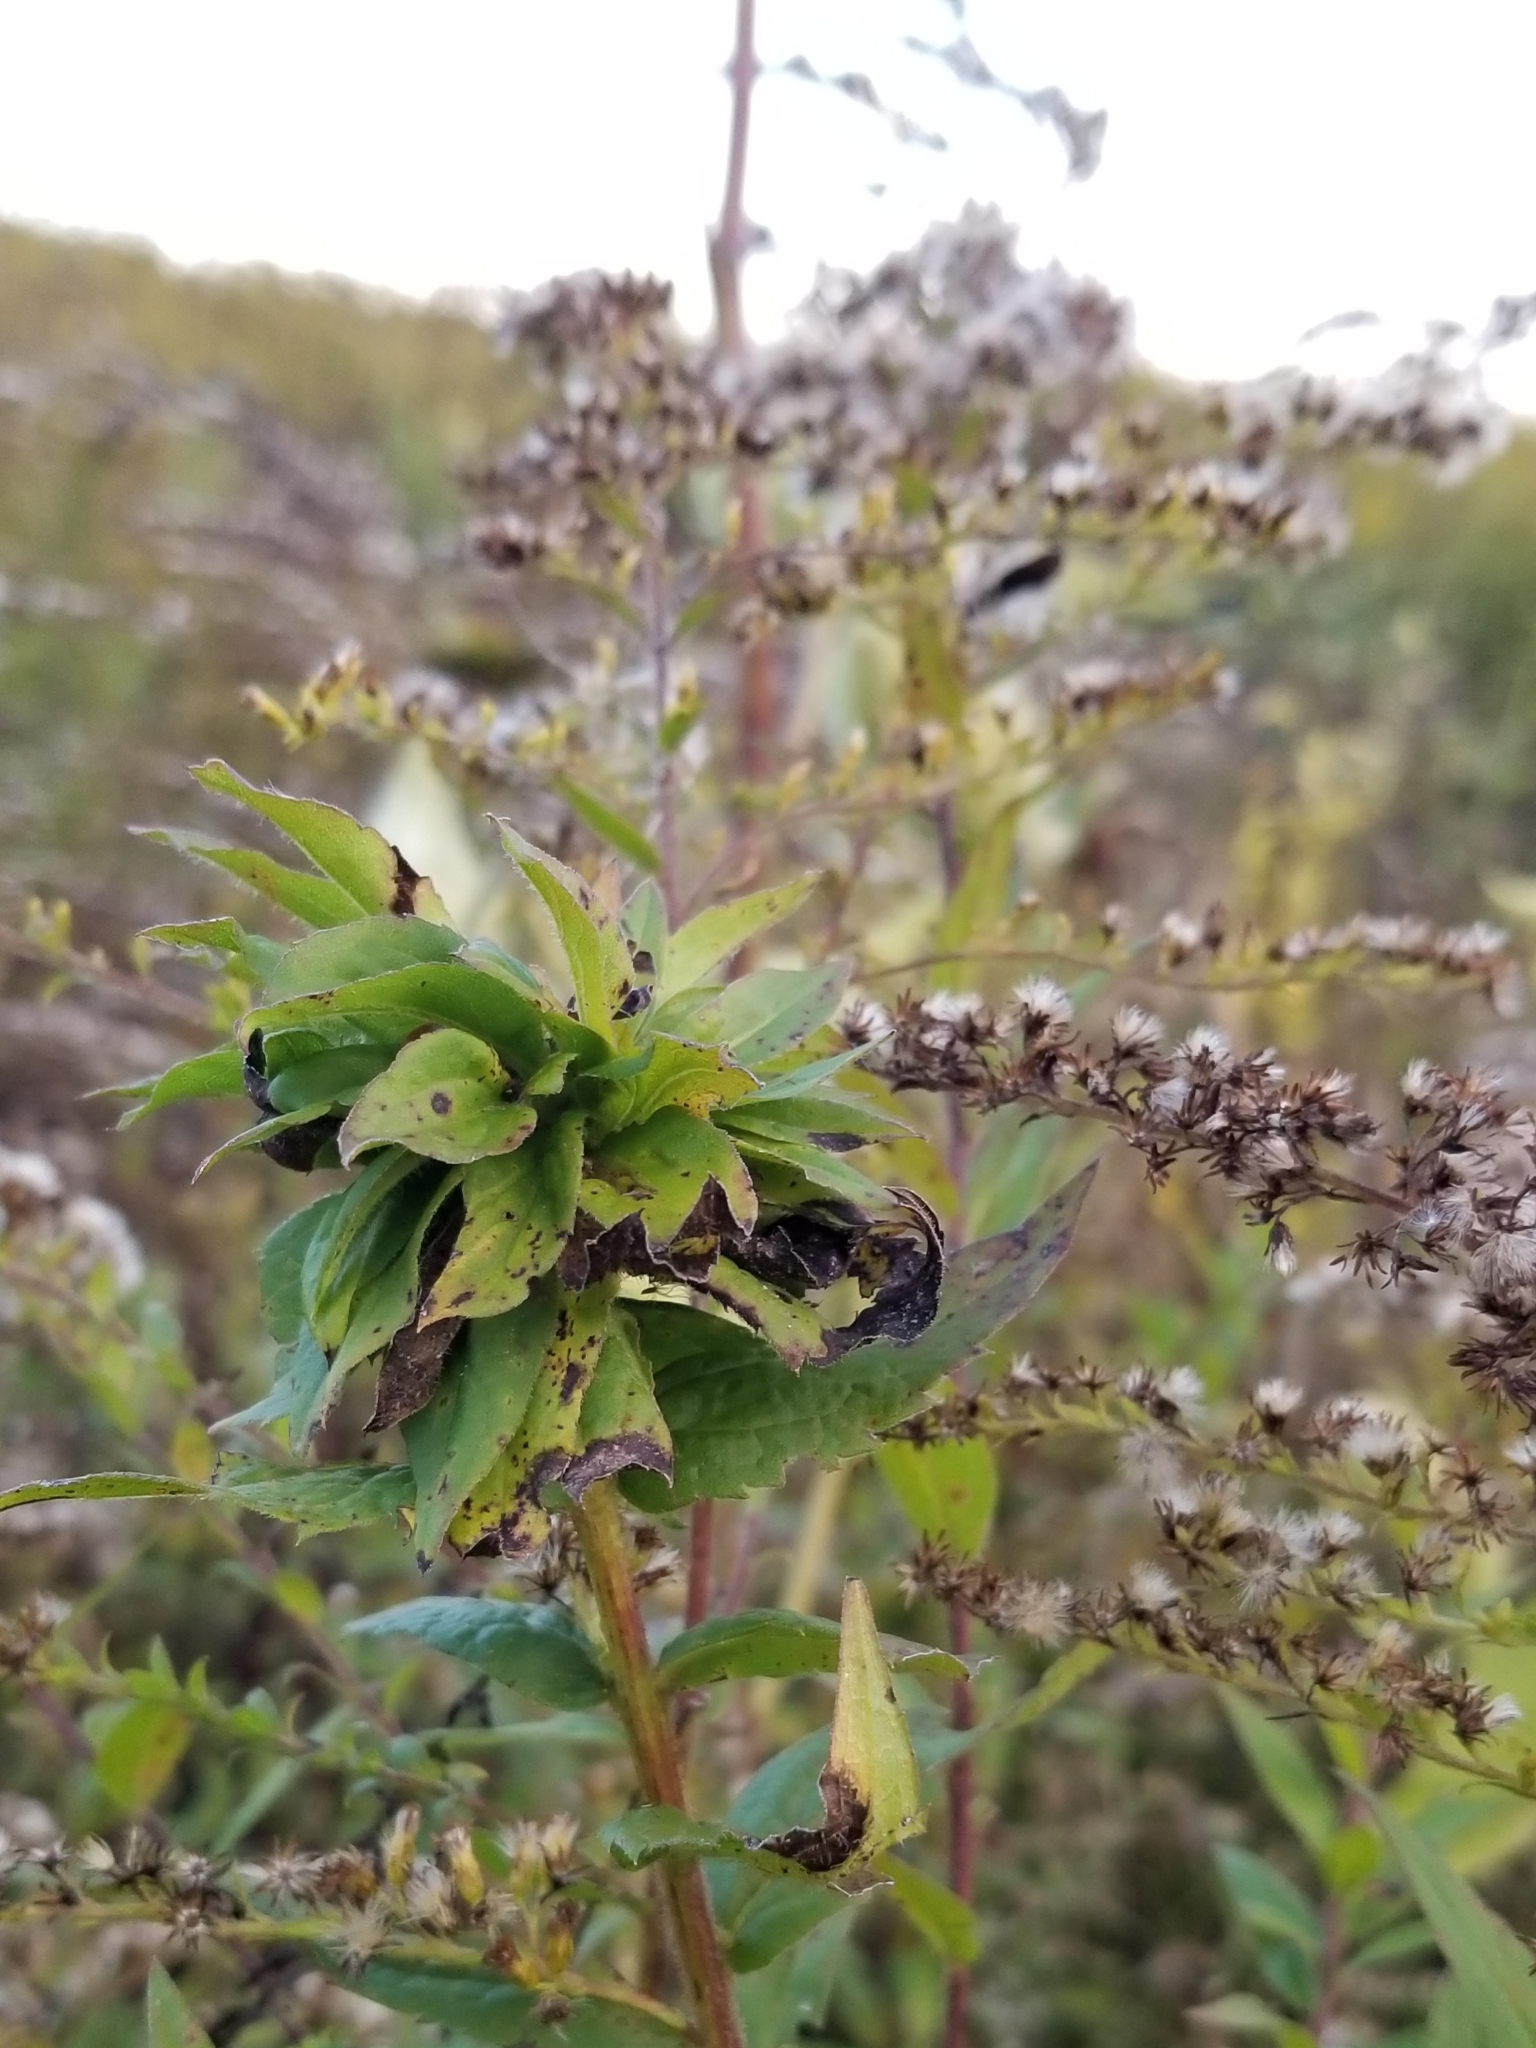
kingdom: Animalia
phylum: Arthropoda
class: Insecta
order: Diptera
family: Cecidomyiidae
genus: Rhopalomyia
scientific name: Rhopalomyia solidaginis
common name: Goldenrod bunch gall midge
